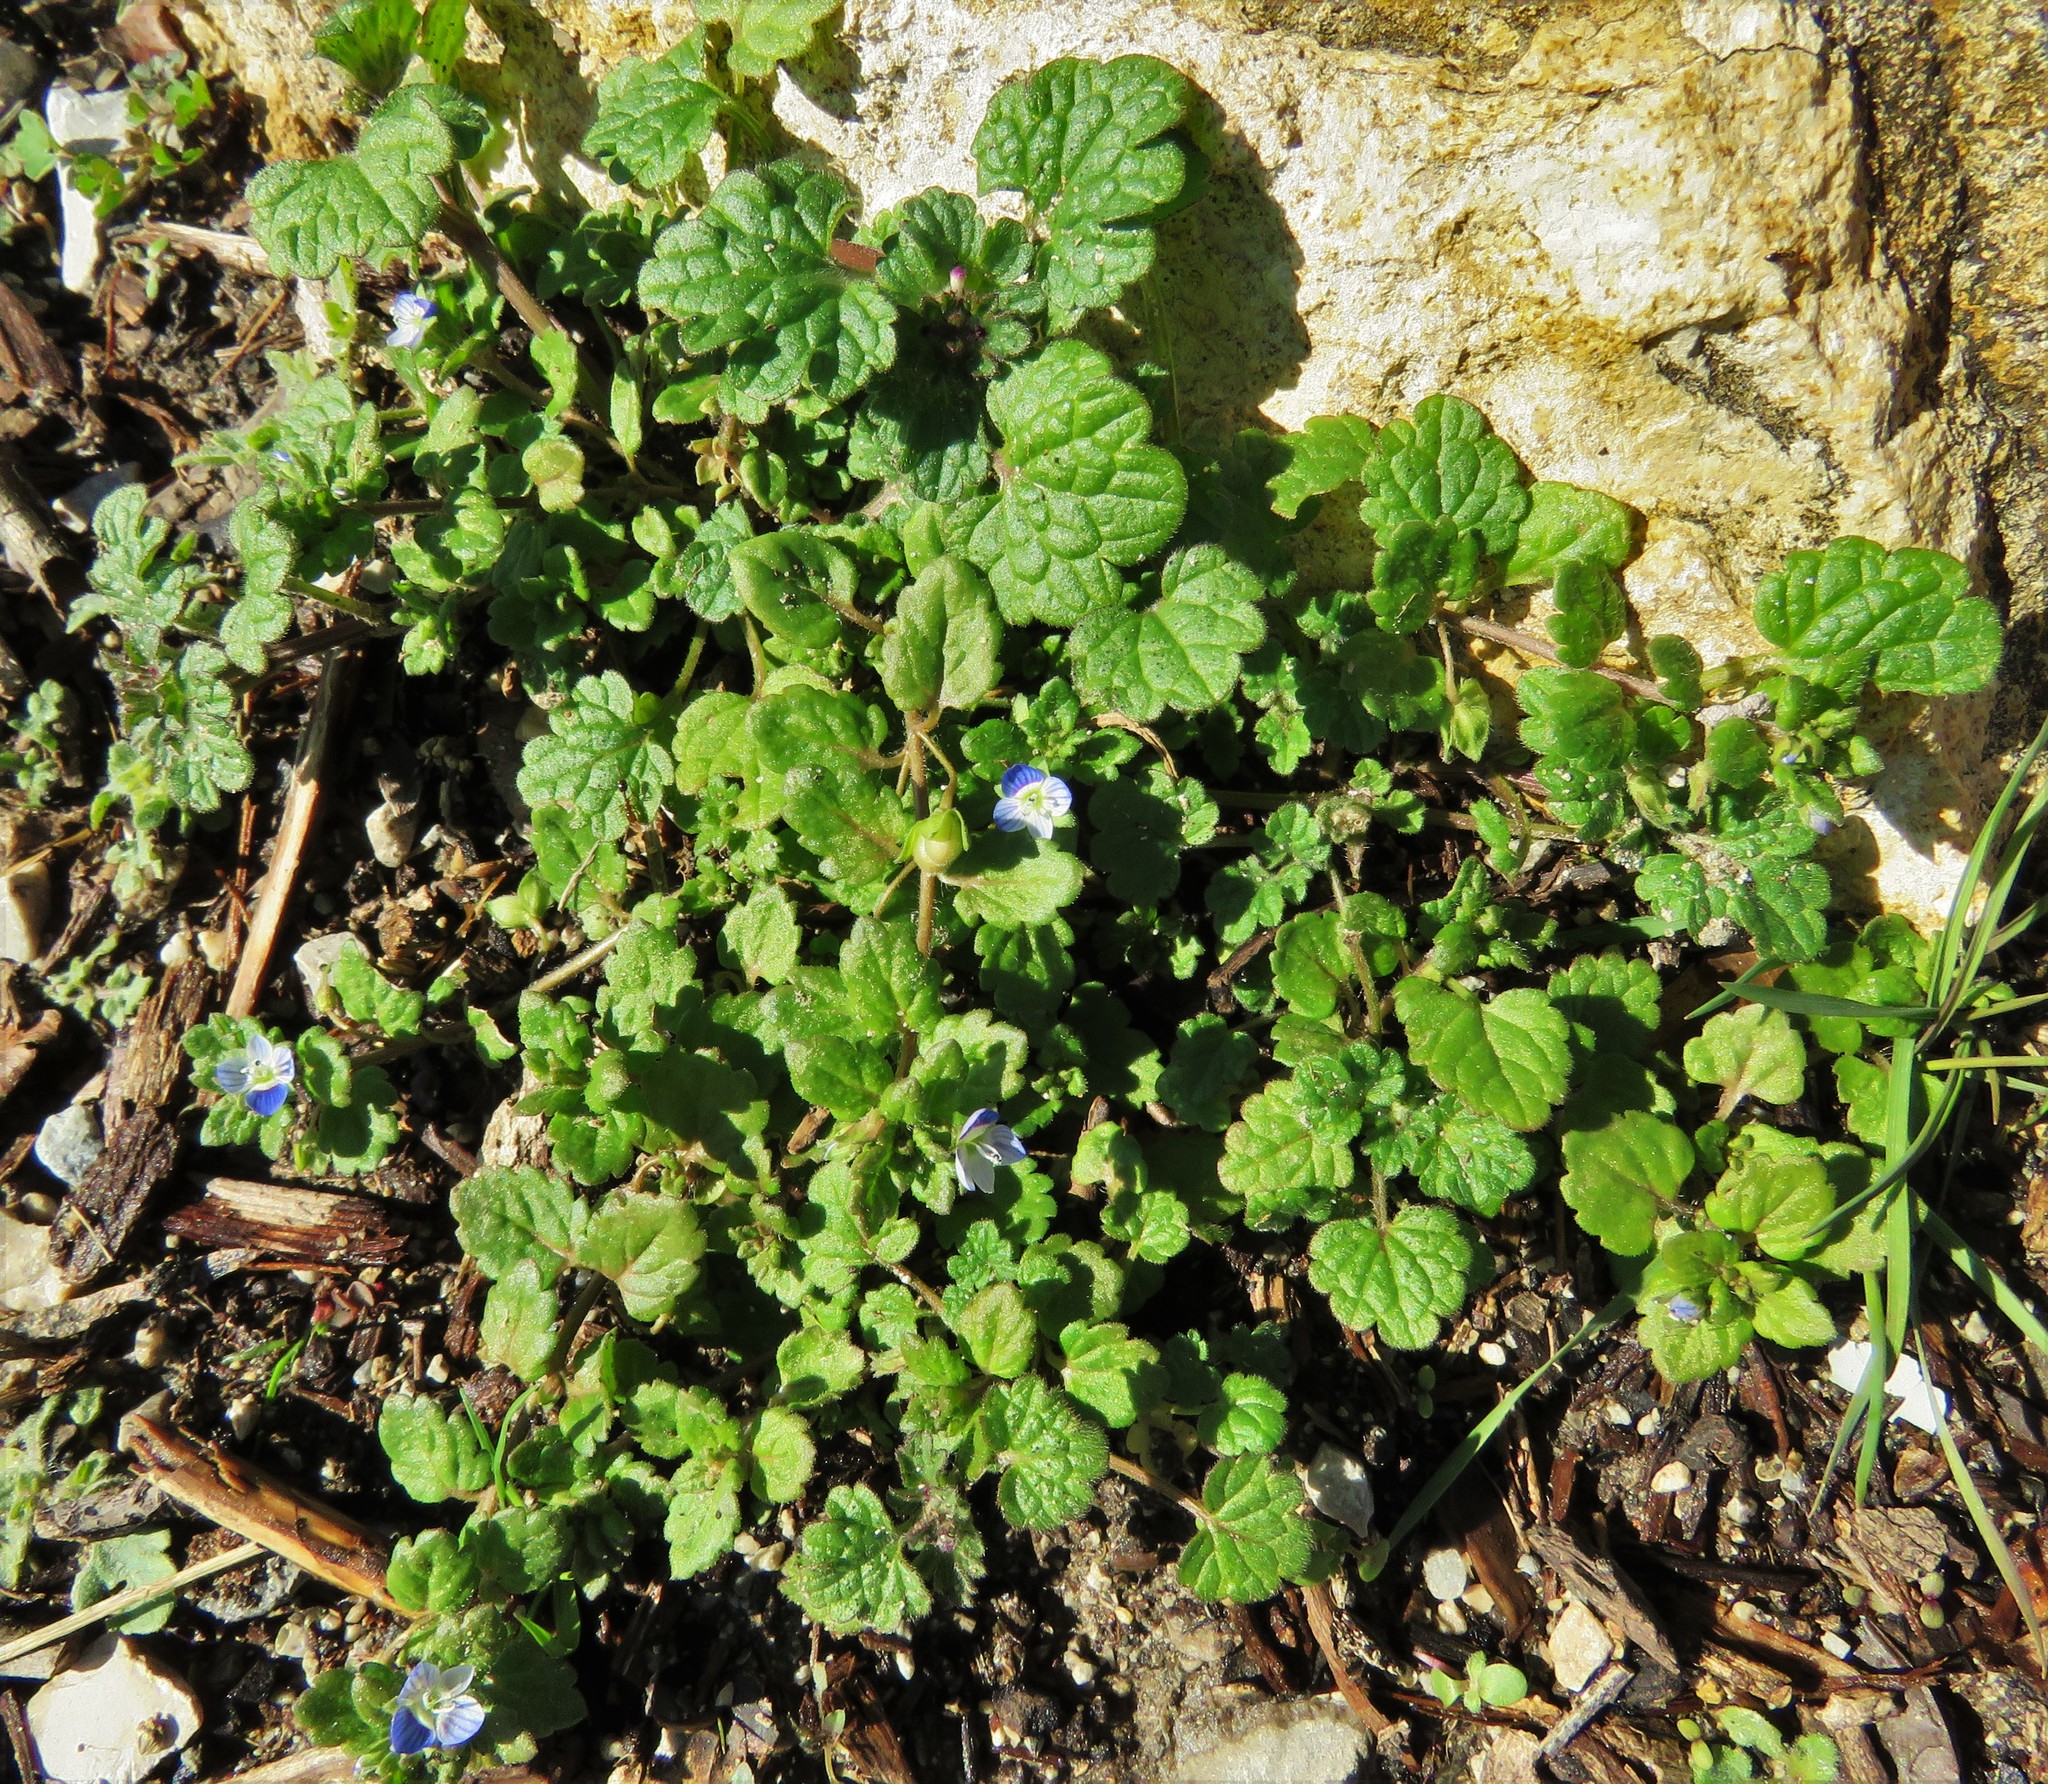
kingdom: Plantae
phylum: Tracheophyta
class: Magnoliopsida
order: Lamiales
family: Plantaginaceae
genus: Veronica
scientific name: Veronica polita
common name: Grey field-speedwell
